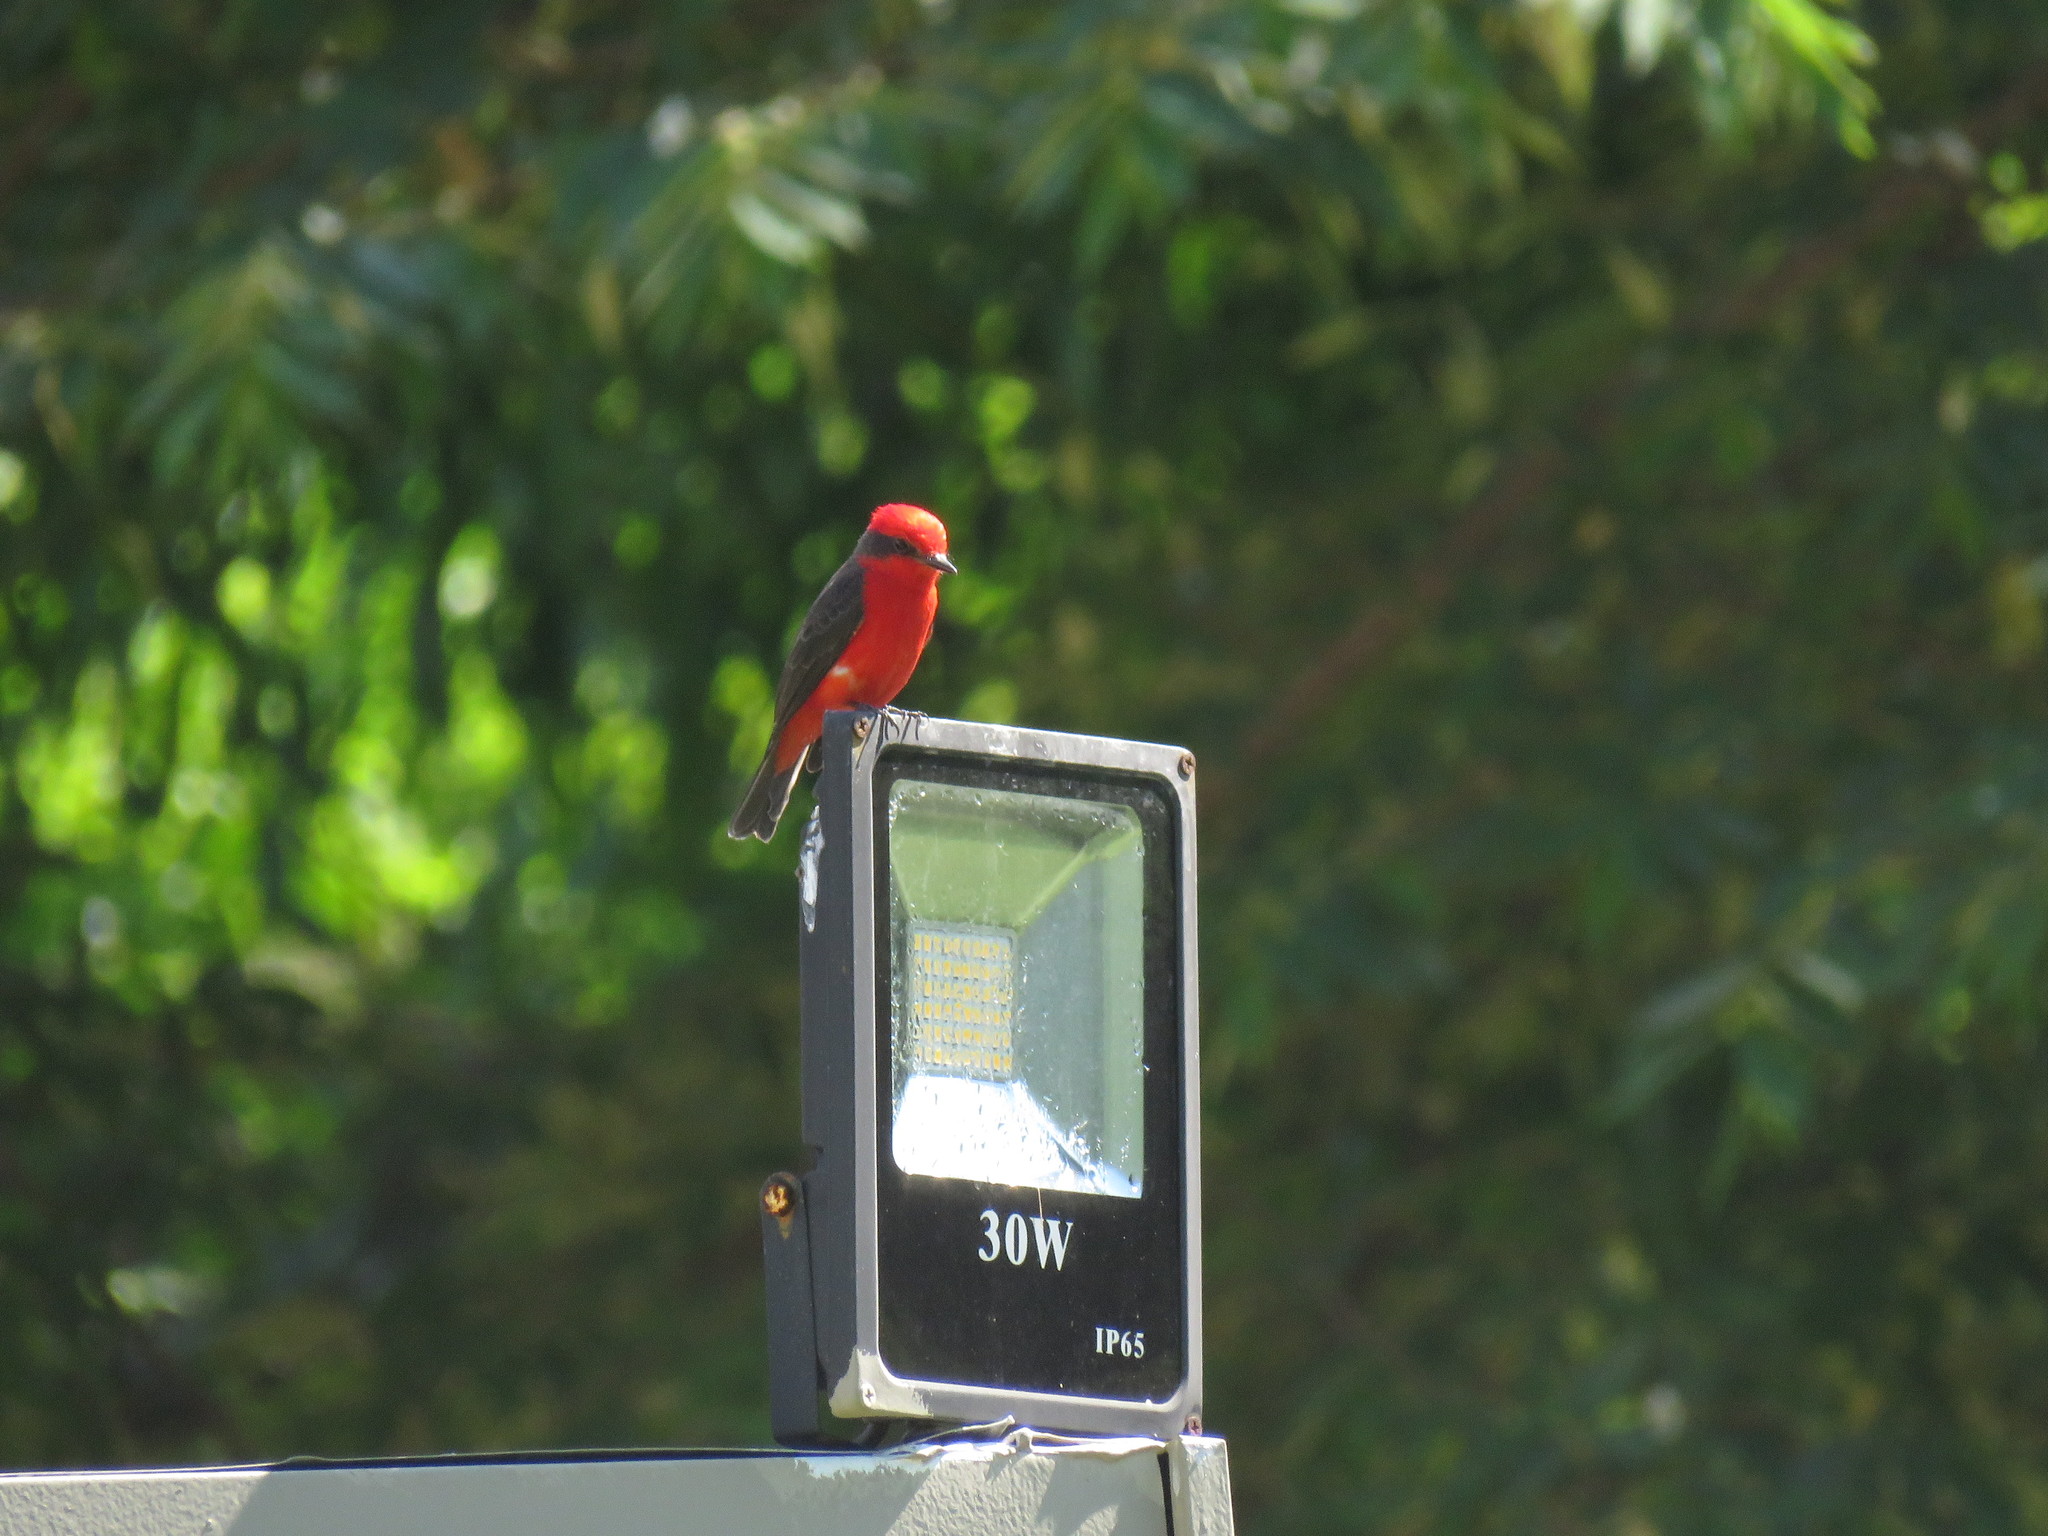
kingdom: Animalia
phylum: Chordata
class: Aves
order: Passeriformes
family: Tyrannidae
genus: Pyrocephalus
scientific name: Pyrocephalus rubinus
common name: Vermilion flycatcher
